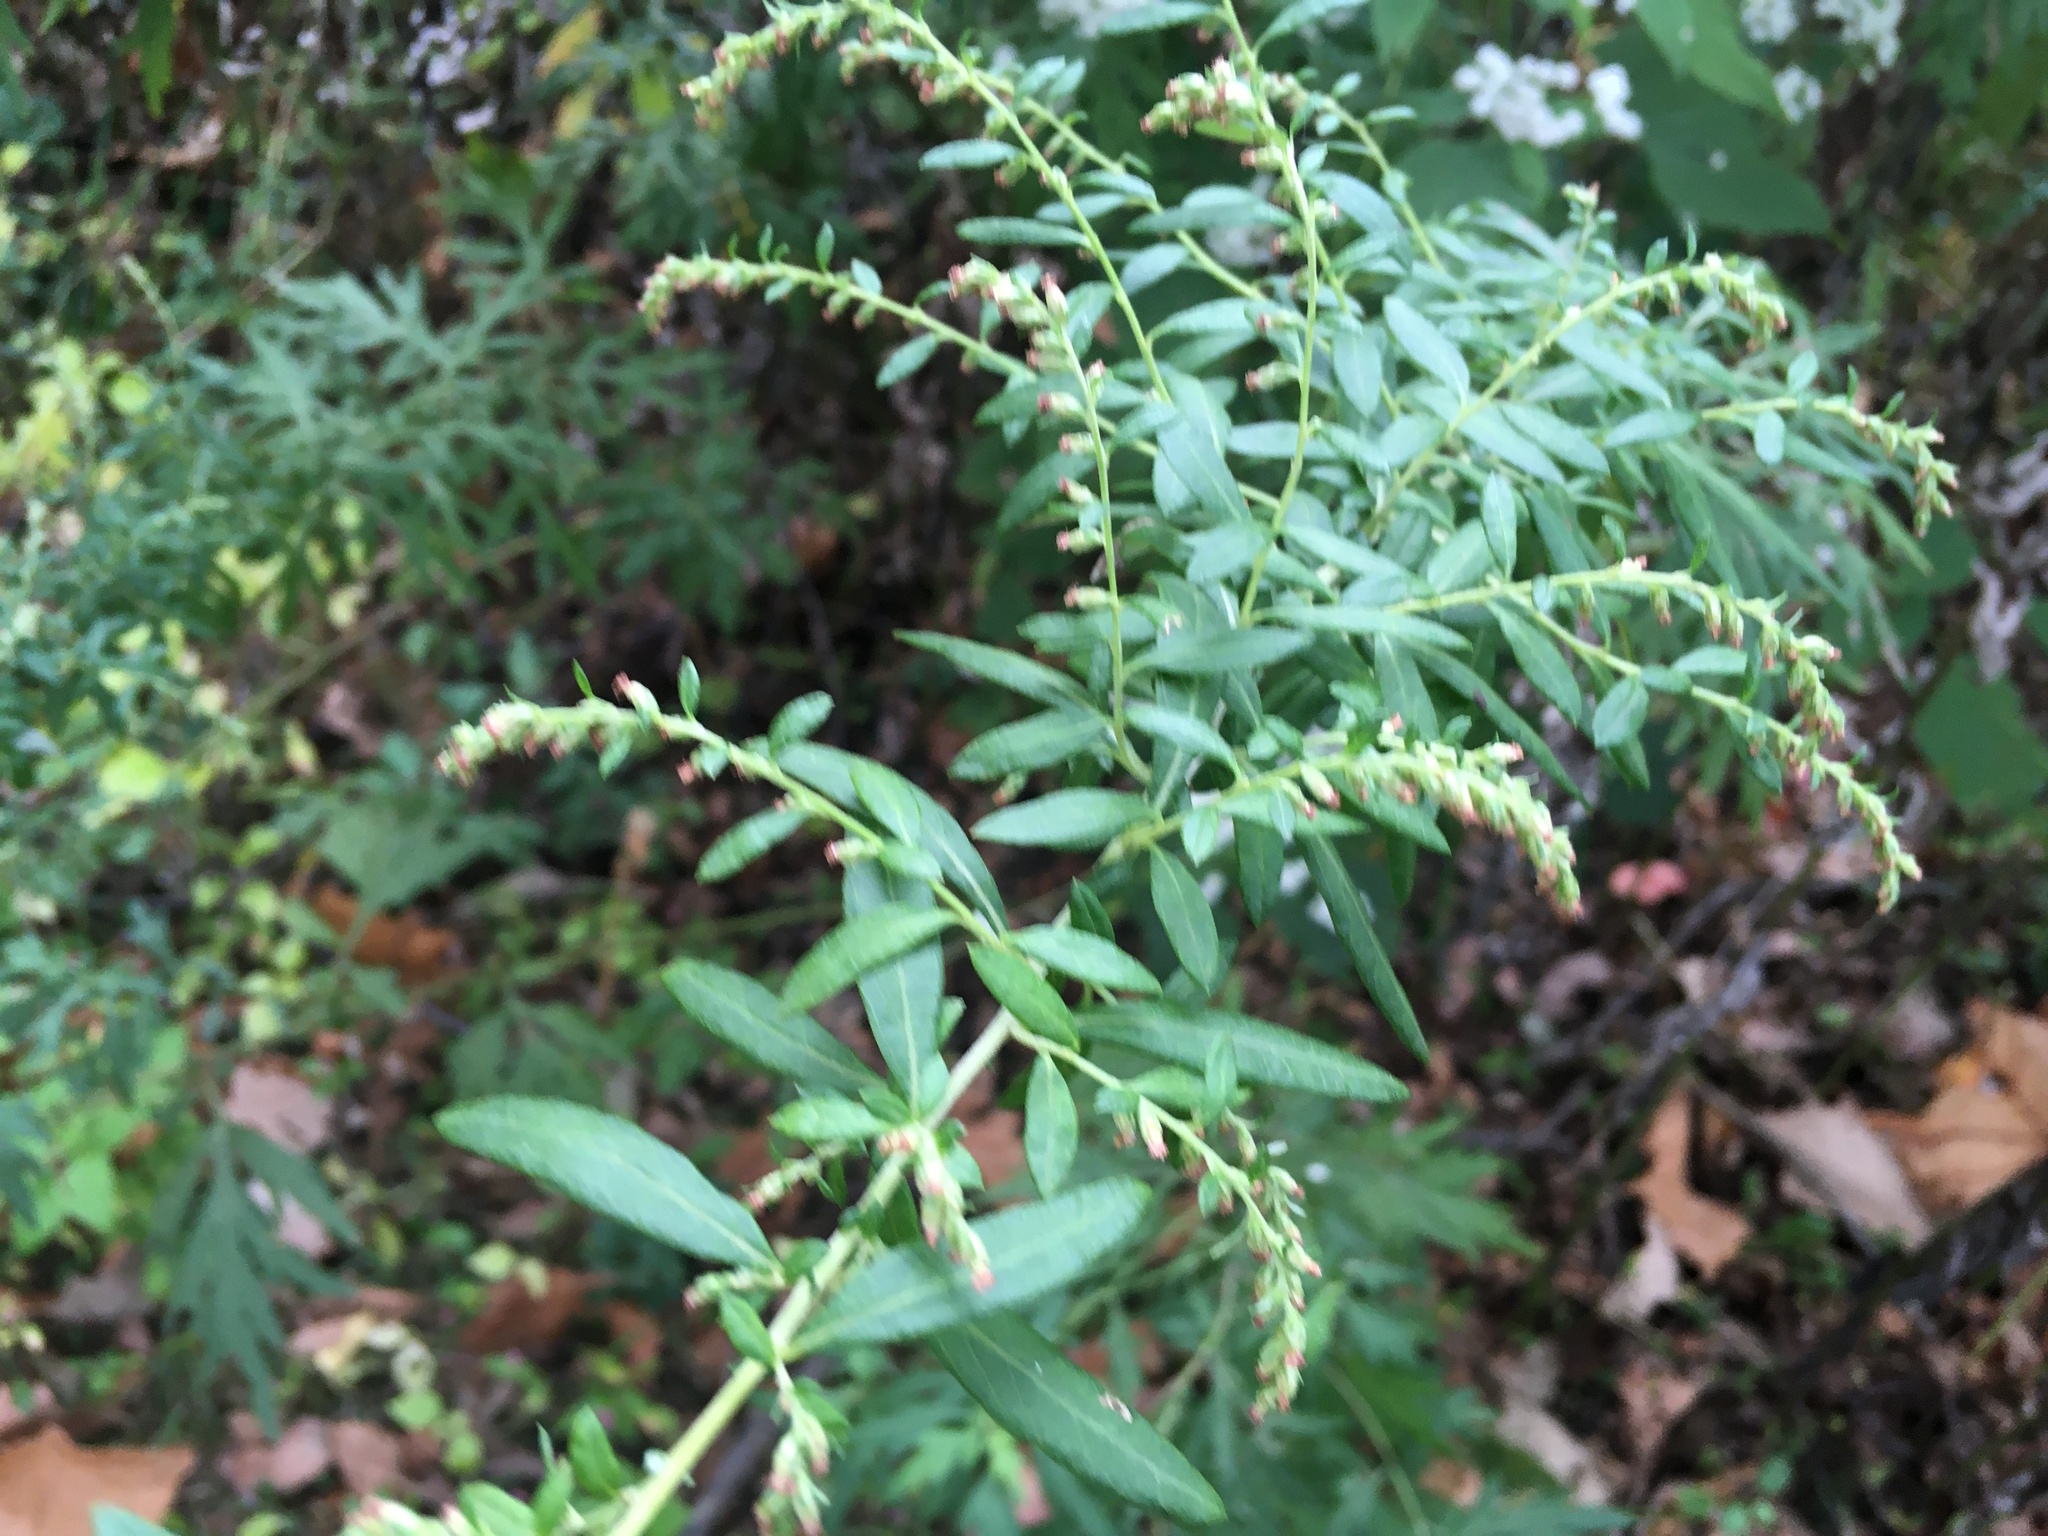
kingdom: Plantae
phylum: Tracheophyta
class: Magnoliopsida
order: Asterales
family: Asteraceae
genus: Artemisia
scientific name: Artemisia vulgaris
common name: Mugwort
